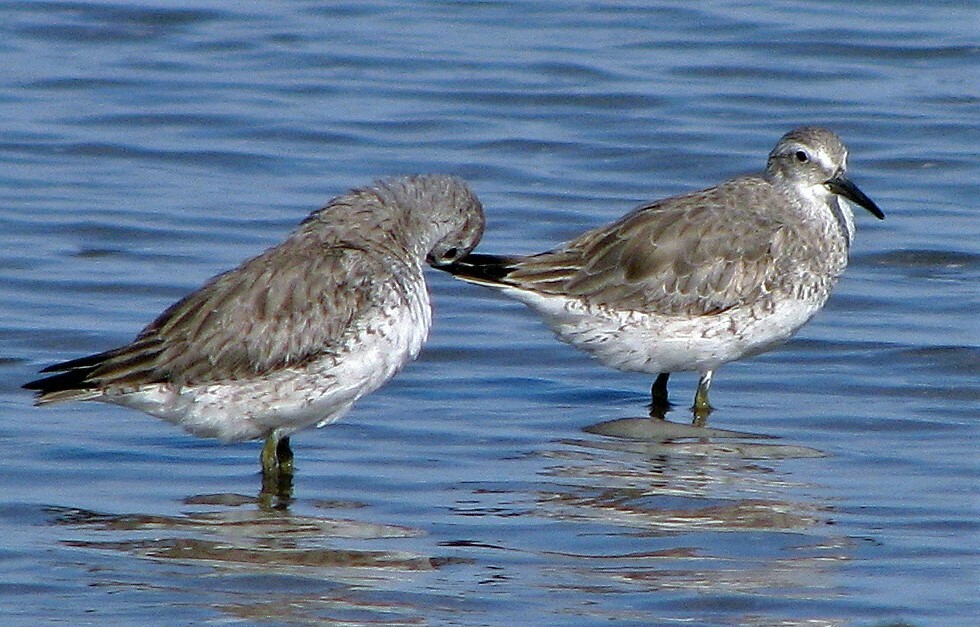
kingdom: Animalia
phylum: Chordata
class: Aves
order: Charadriiformes
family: Scolopacidae
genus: Calidris
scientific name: Calidris canutus
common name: Red knot
